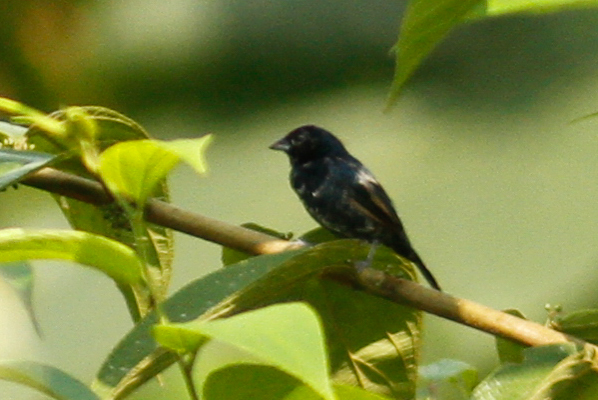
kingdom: Animalia
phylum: Chordata
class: Aves
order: Passeriformes
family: Thraupidae
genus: Volatinia
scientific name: Volatinia jacarina
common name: Blue-black grassquit
